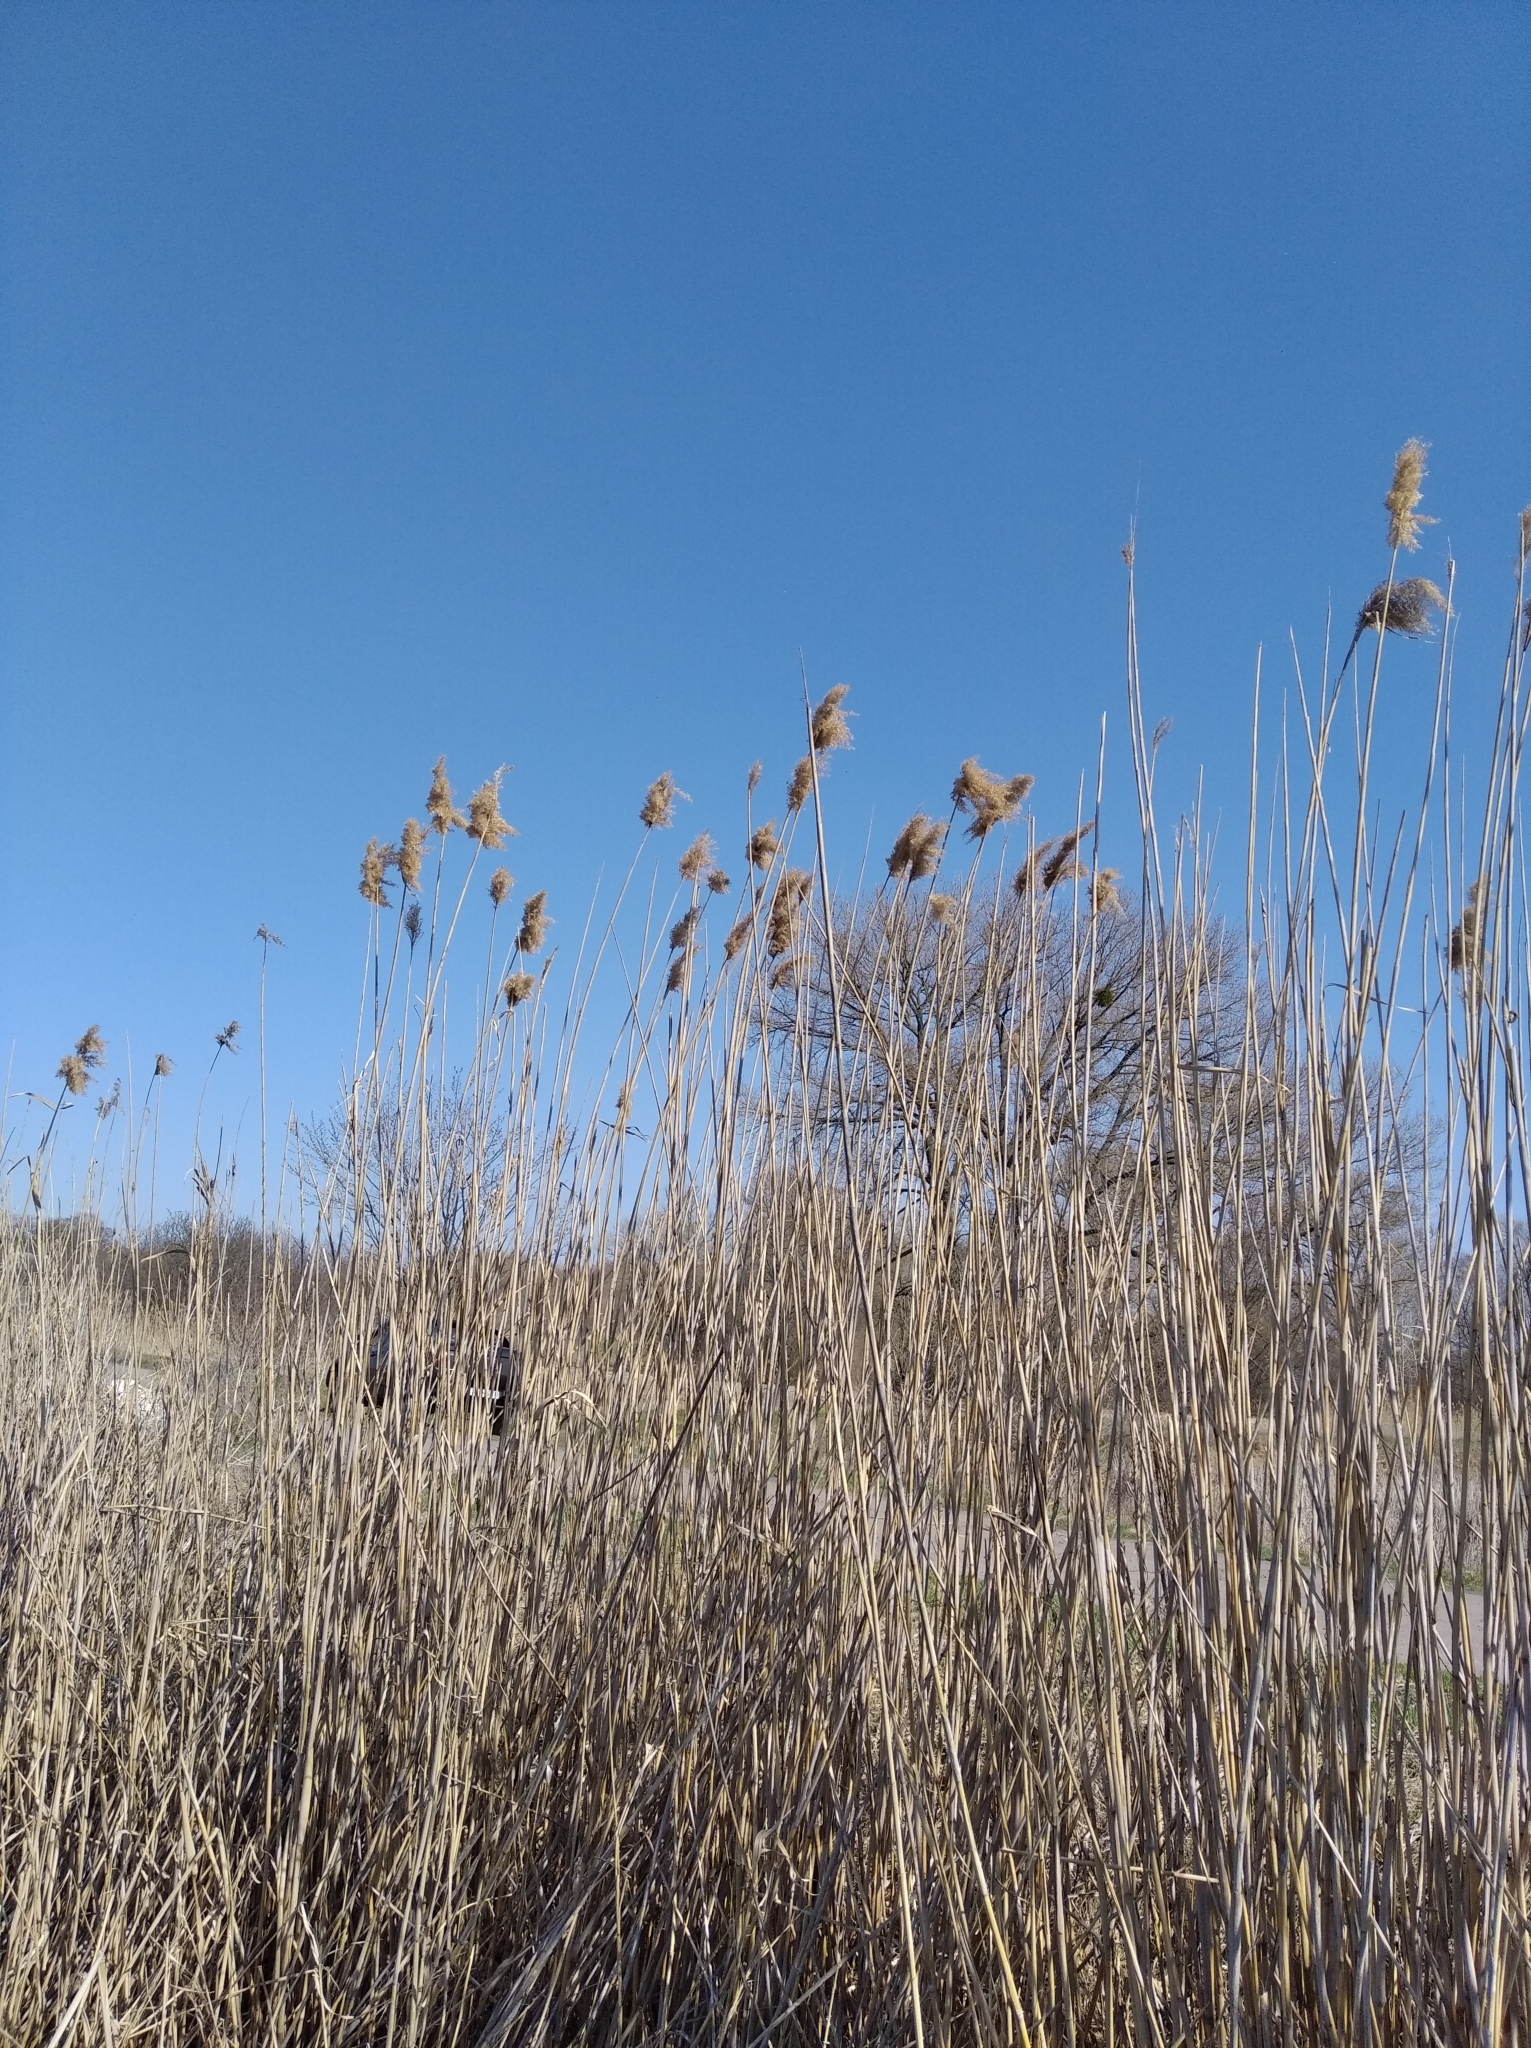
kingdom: Plantae
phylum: Tracheophyta
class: Liliopsida
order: Poales
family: Poaceae
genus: Phragmites
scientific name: Phragmites australis
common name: Common reed
